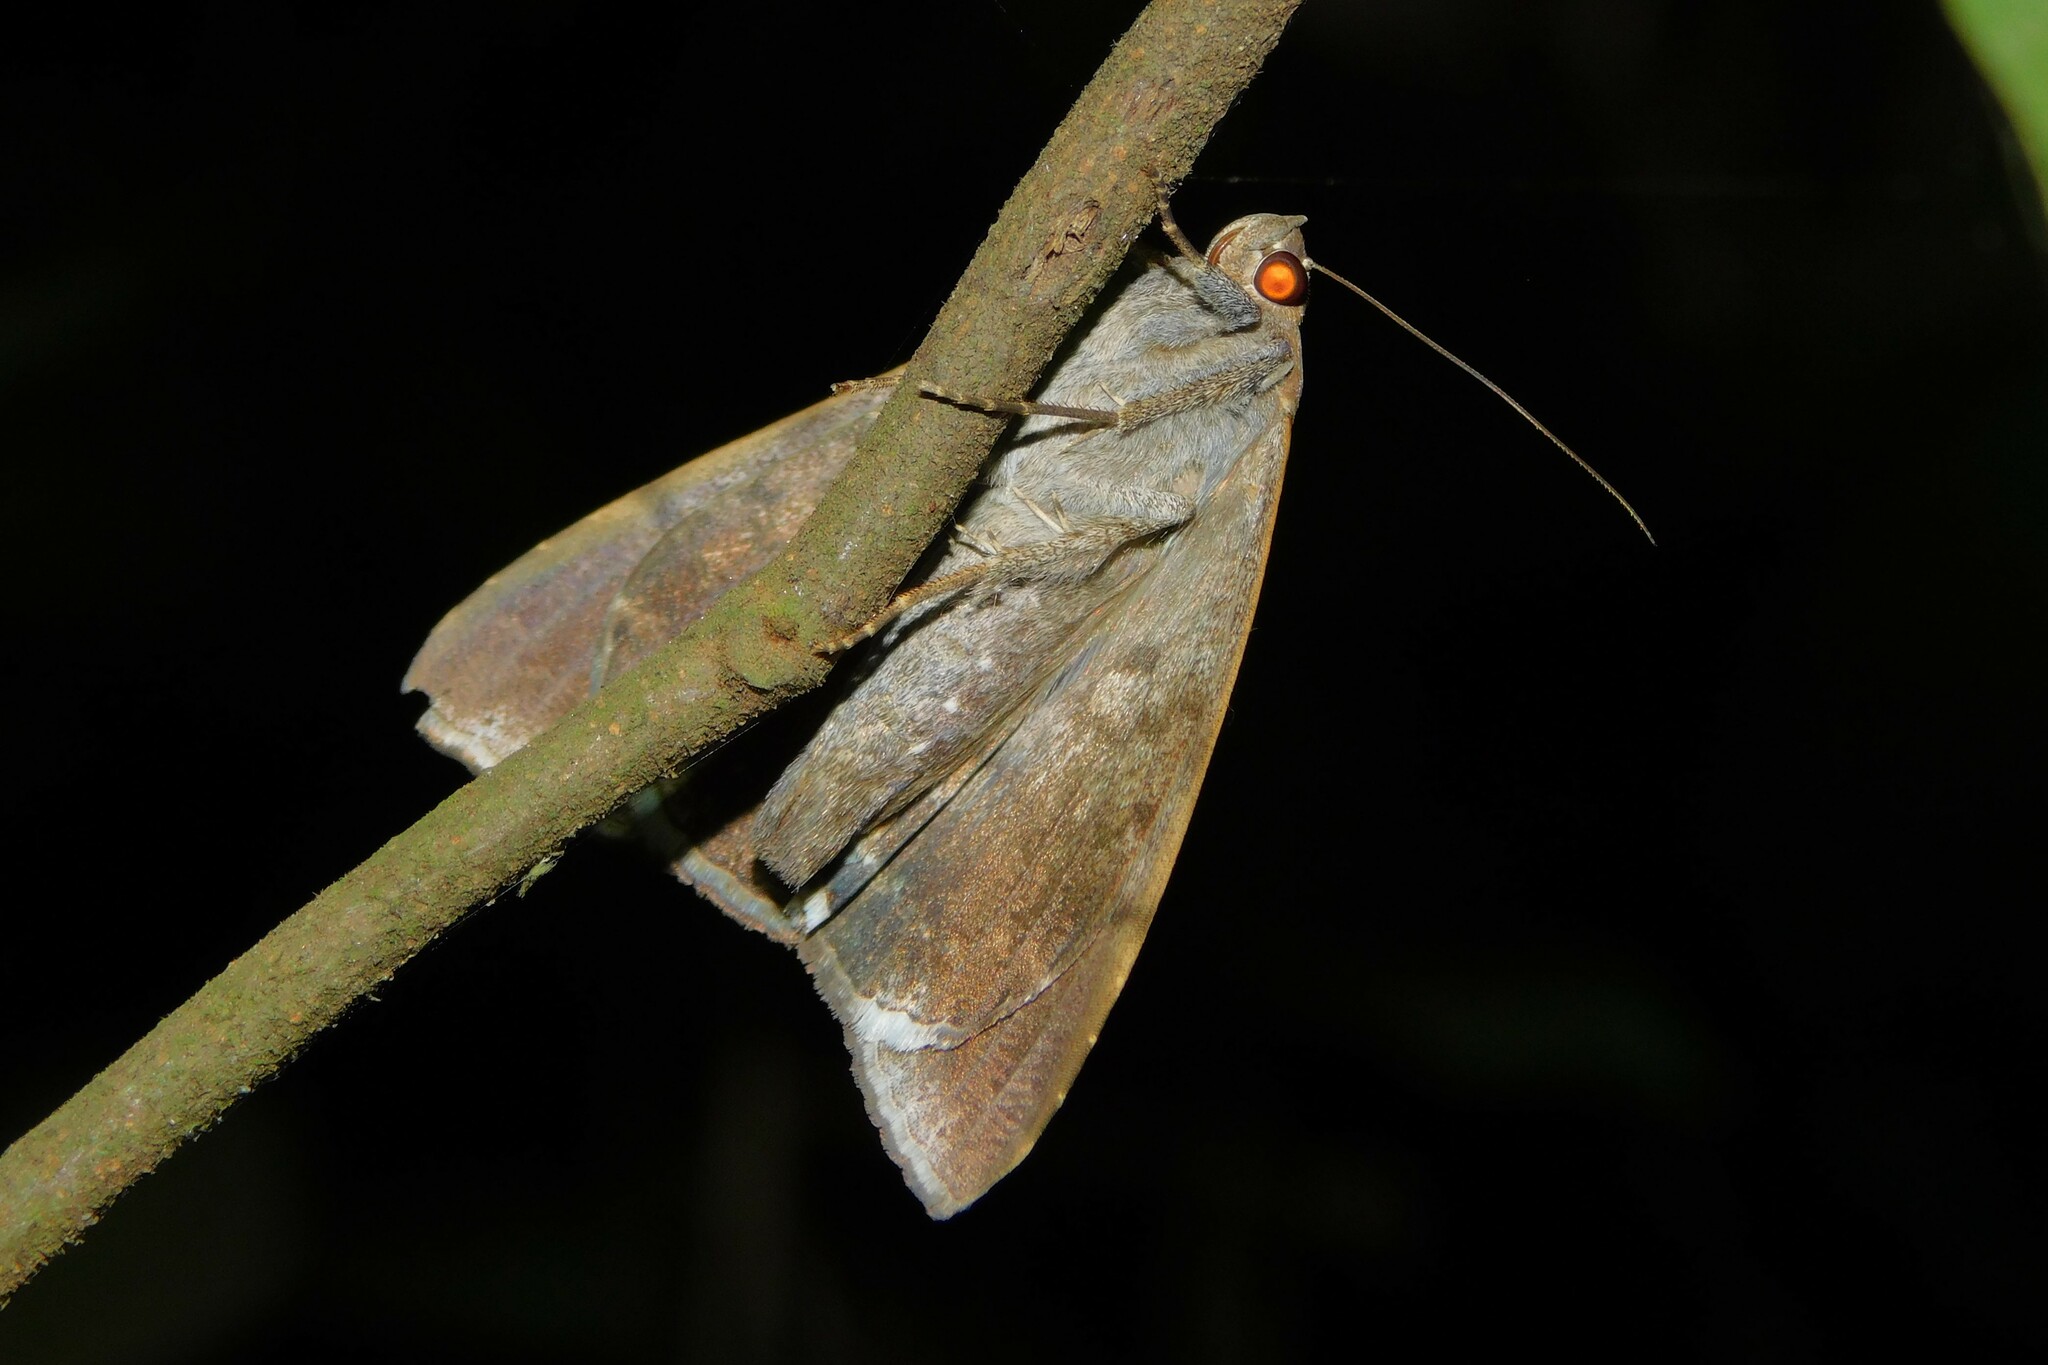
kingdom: Animalia
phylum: Arthropoda
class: Insecta
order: Lepidoptera
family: Erebidae
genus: Achaea
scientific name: Achaea lienardi
